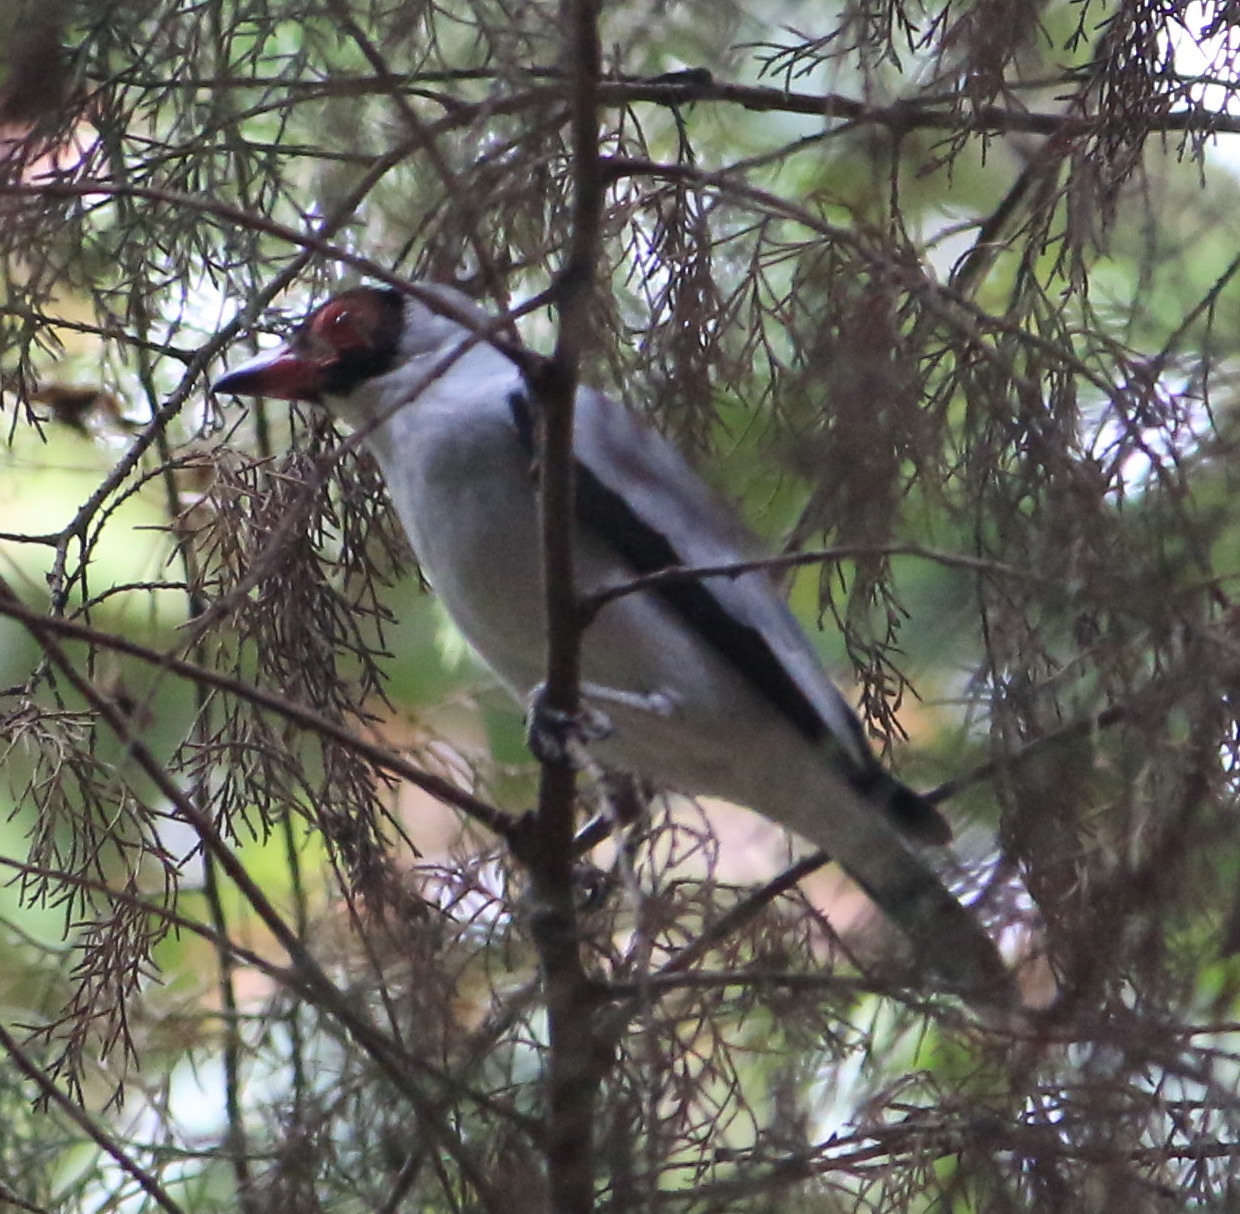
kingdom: Animalia
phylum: Chordata
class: Aves
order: Passeriformes
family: Cotingidae
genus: Tityra
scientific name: Tityra semifasciata
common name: Masked tityra
